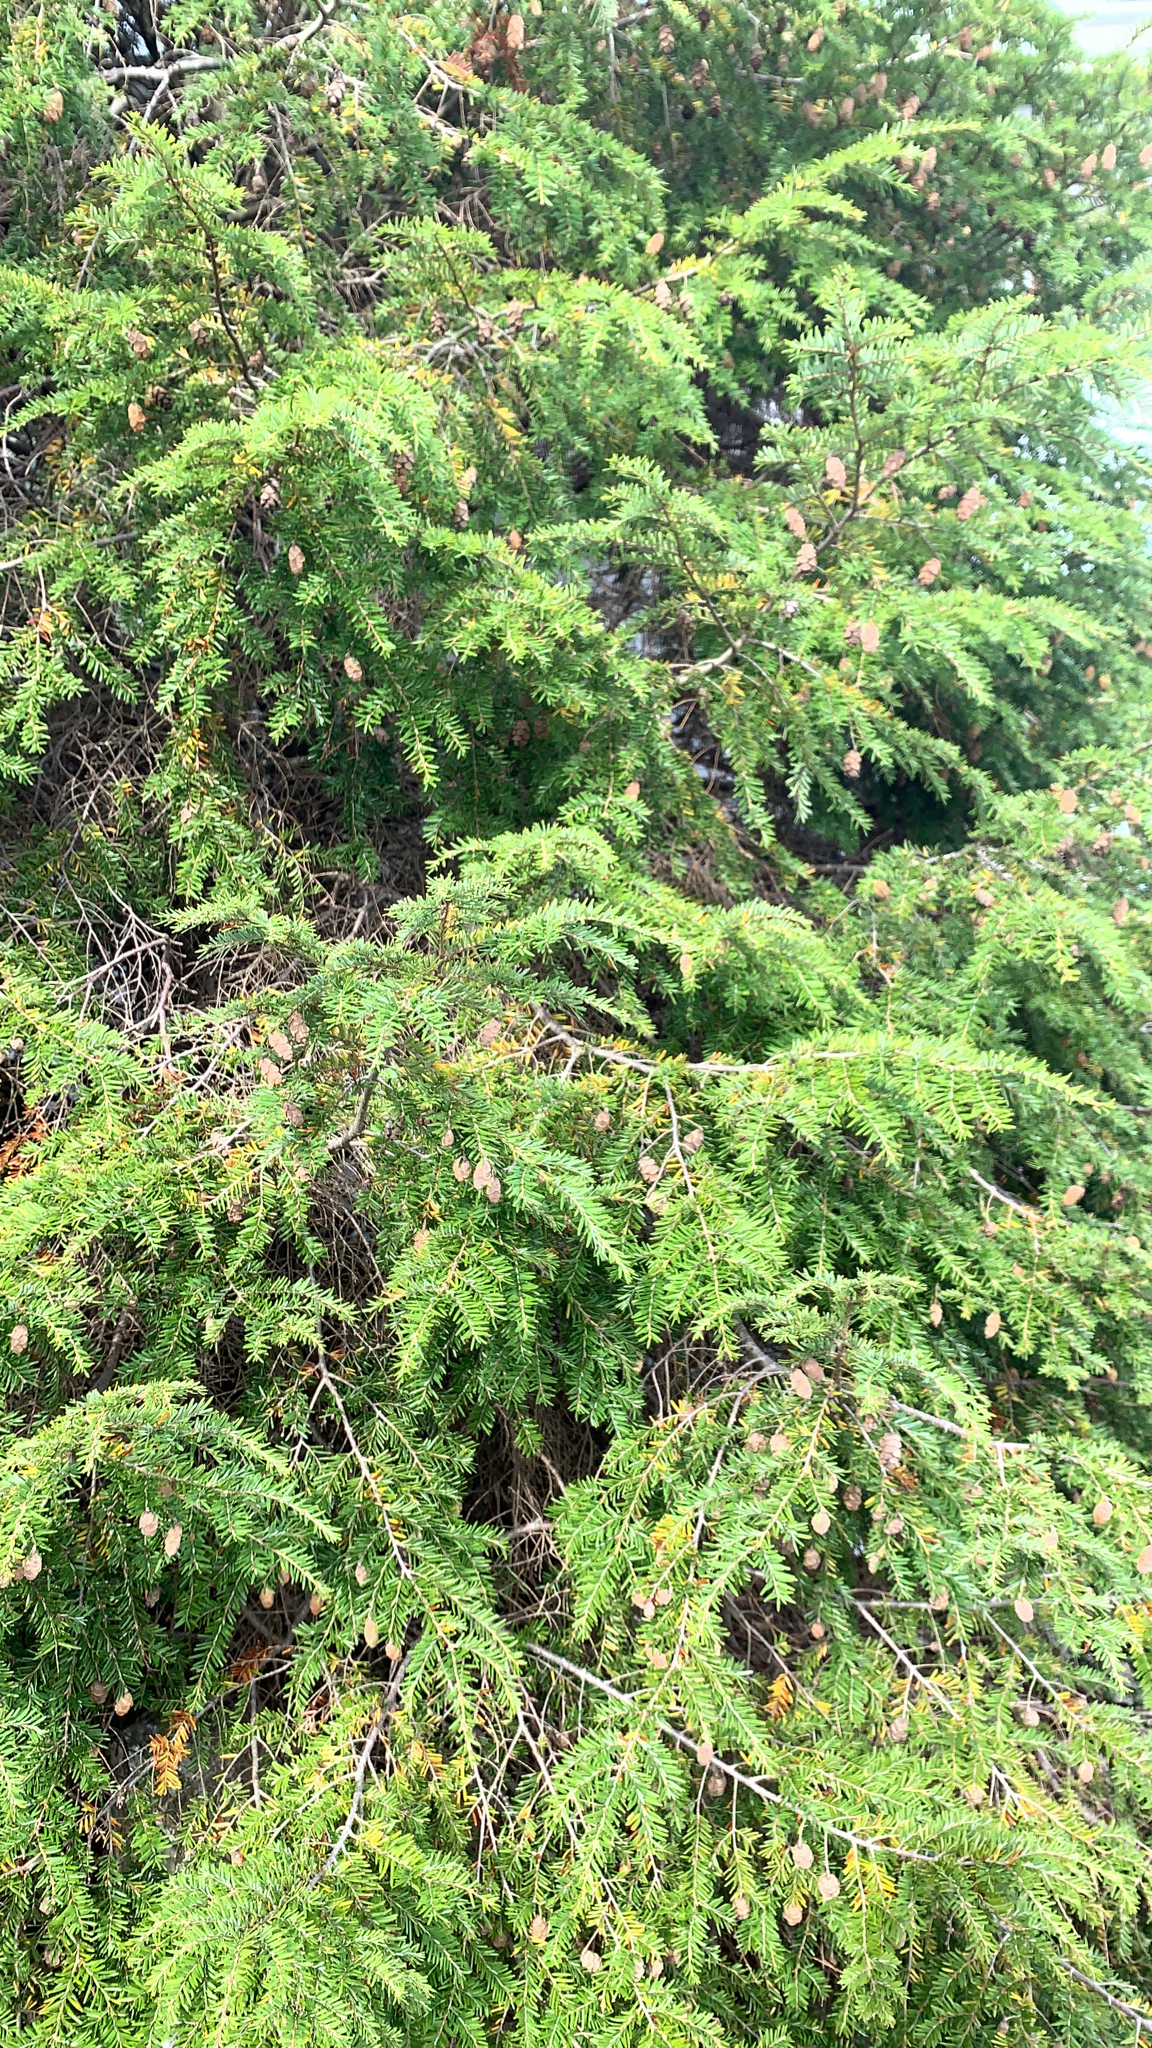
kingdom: Plantae
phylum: Tracheophyta
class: Pinopsida
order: Pinales
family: Pinaceae
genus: Tsuga
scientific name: Tsuga canadensis
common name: Eastern hemlock
